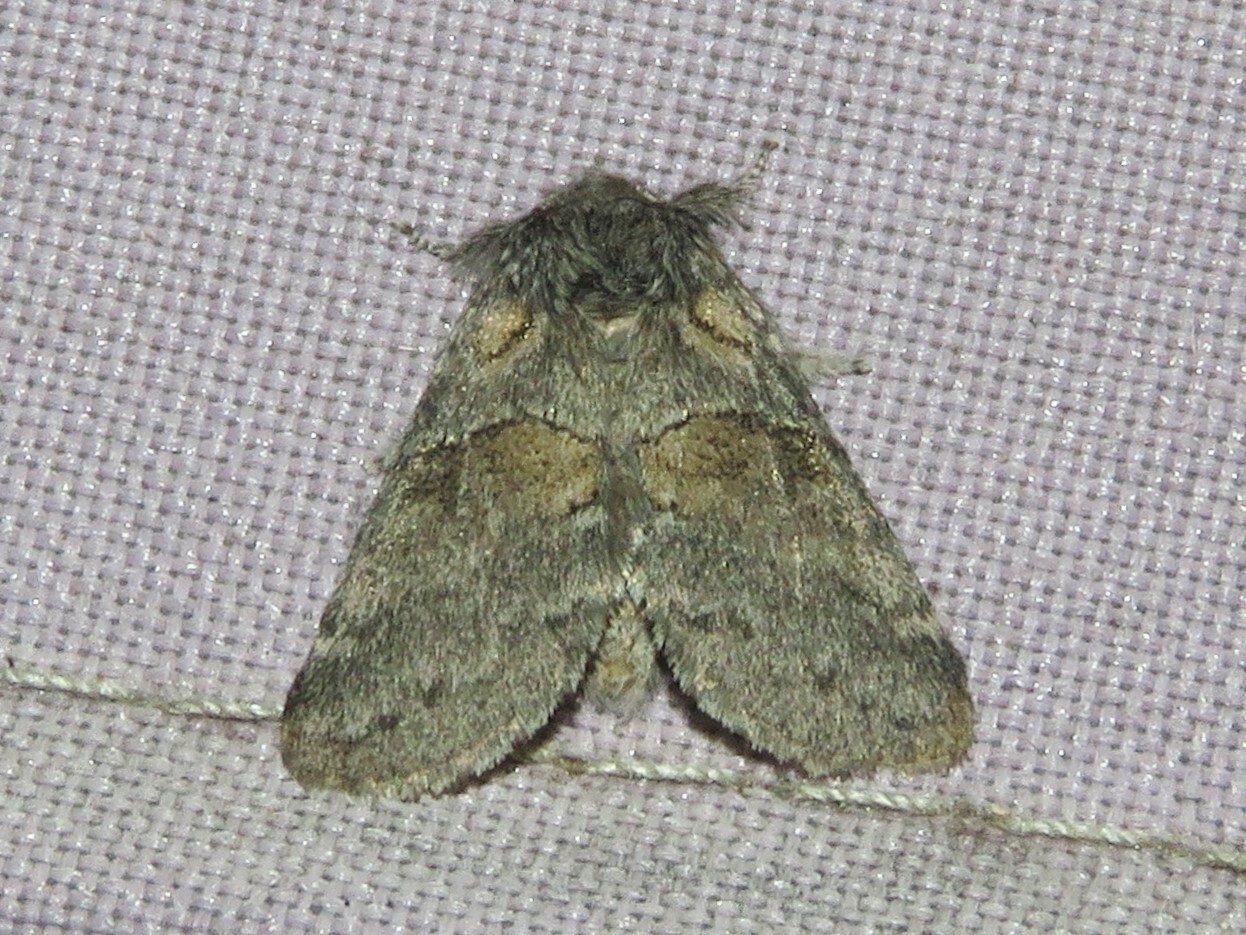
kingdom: Animalia
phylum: Arthropoda
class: Insecta
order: Lepidoptera
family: Notodontidae
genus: Gluphisia
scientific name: Gluphisia septentrionis
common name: Common gluphisia
